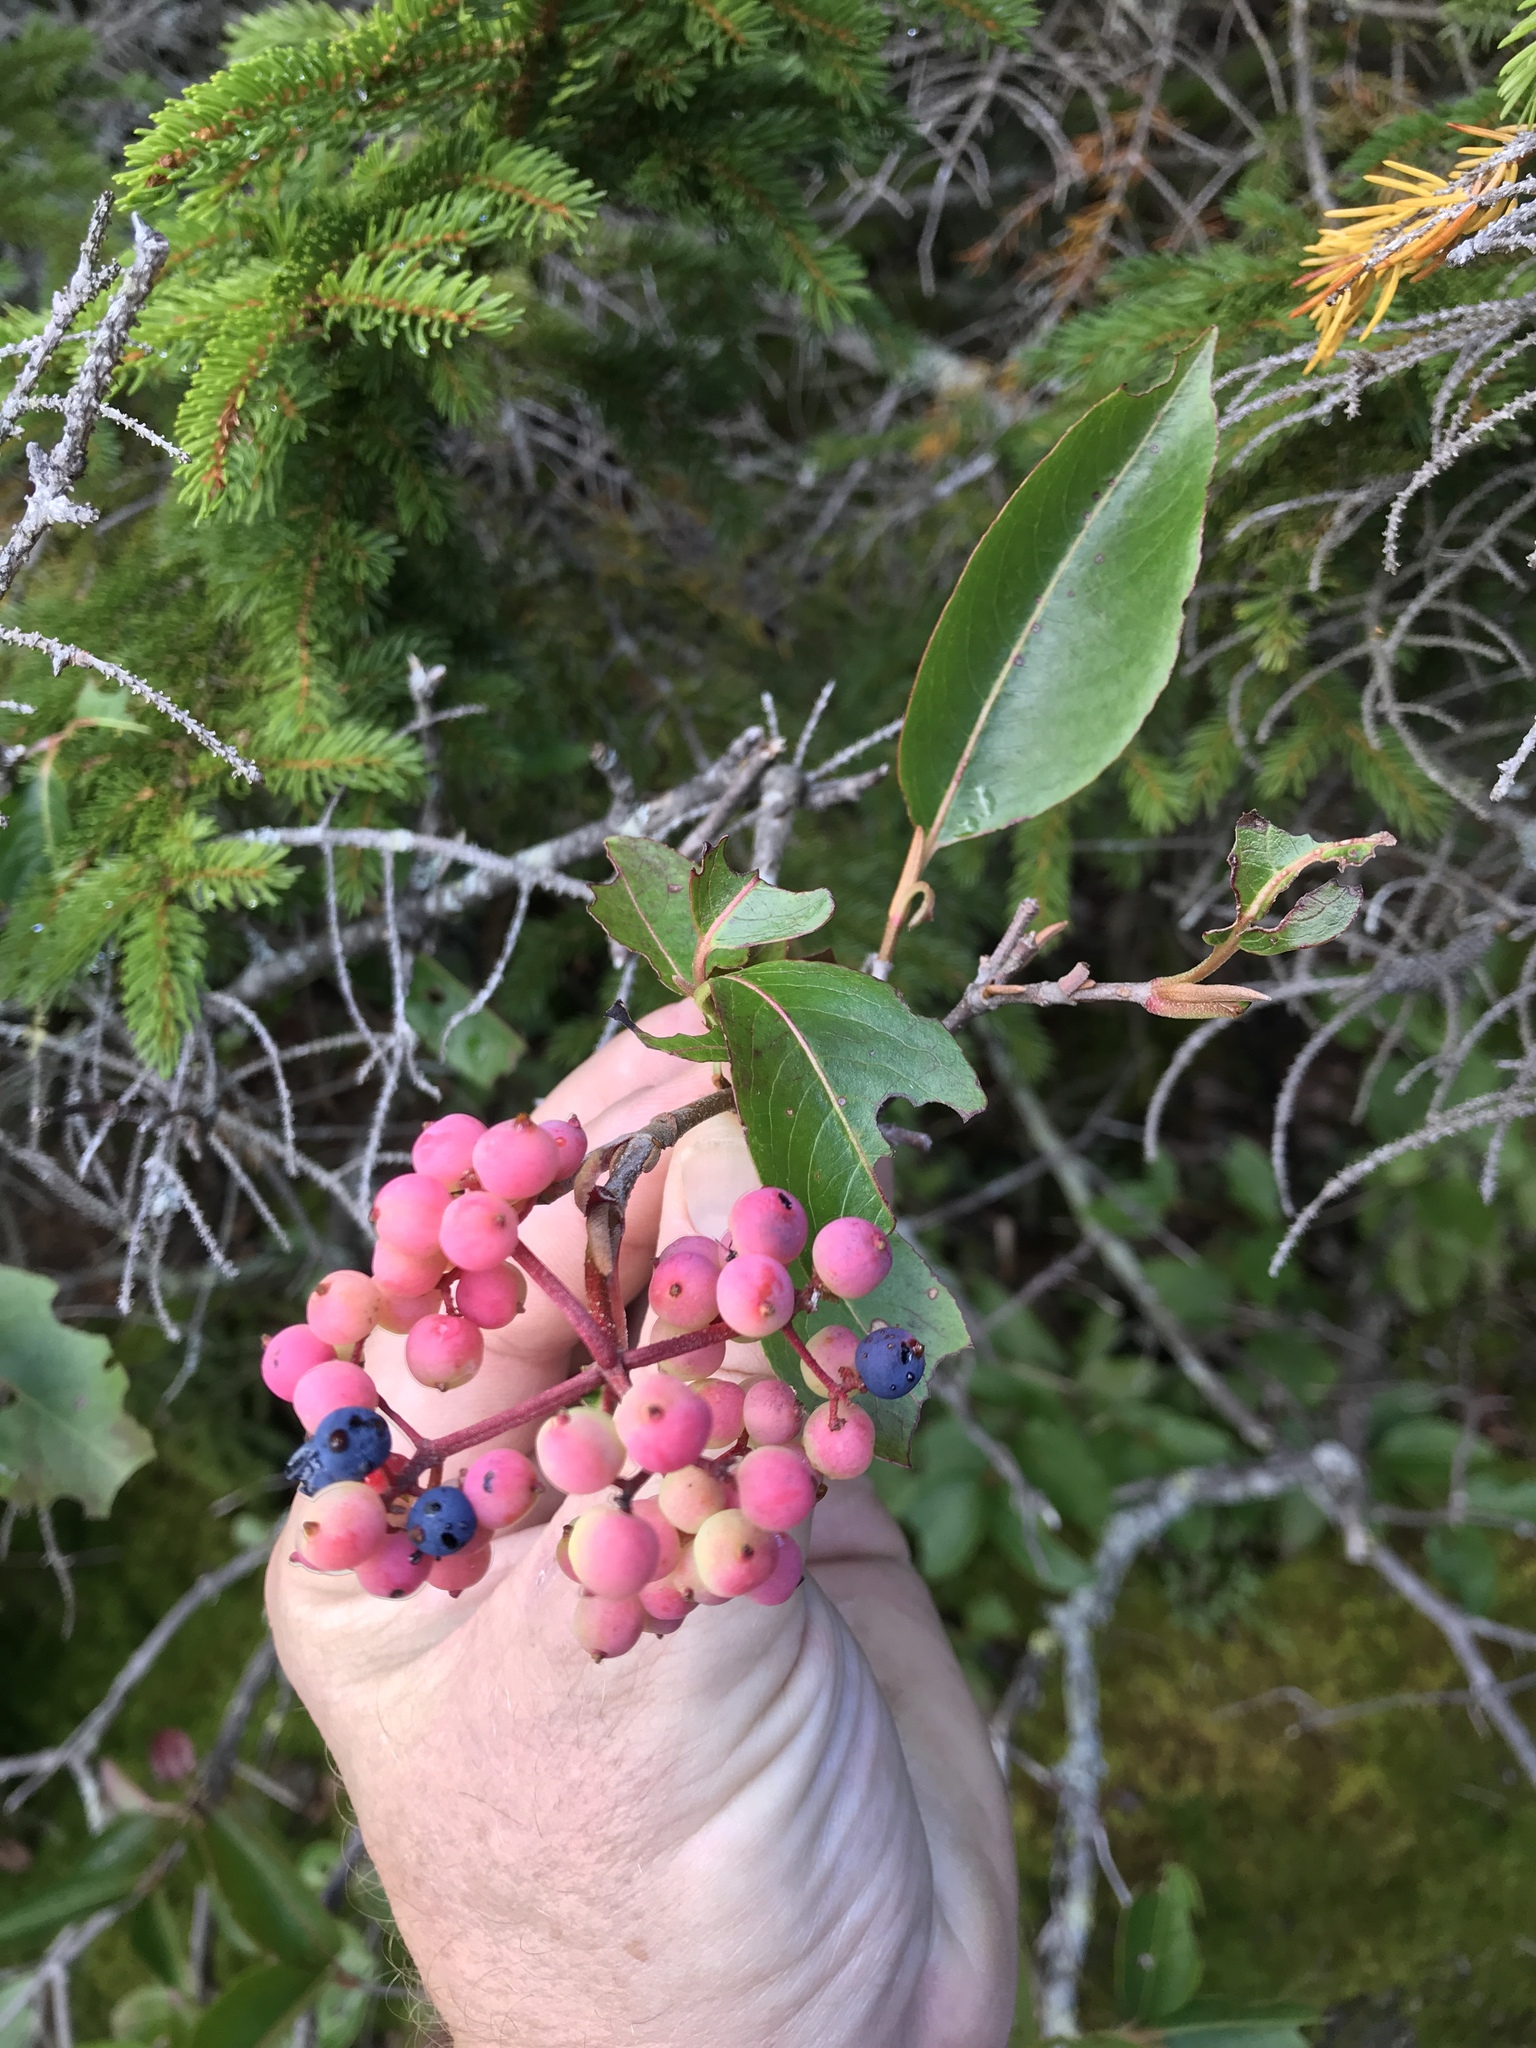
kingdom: Plantae
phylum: Tracheophyta
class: Magnoliopsida
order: Dipsacales
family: Viburnaceae
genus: Viburnum
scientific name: Viburnum cassinoides
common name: Swamp haw
